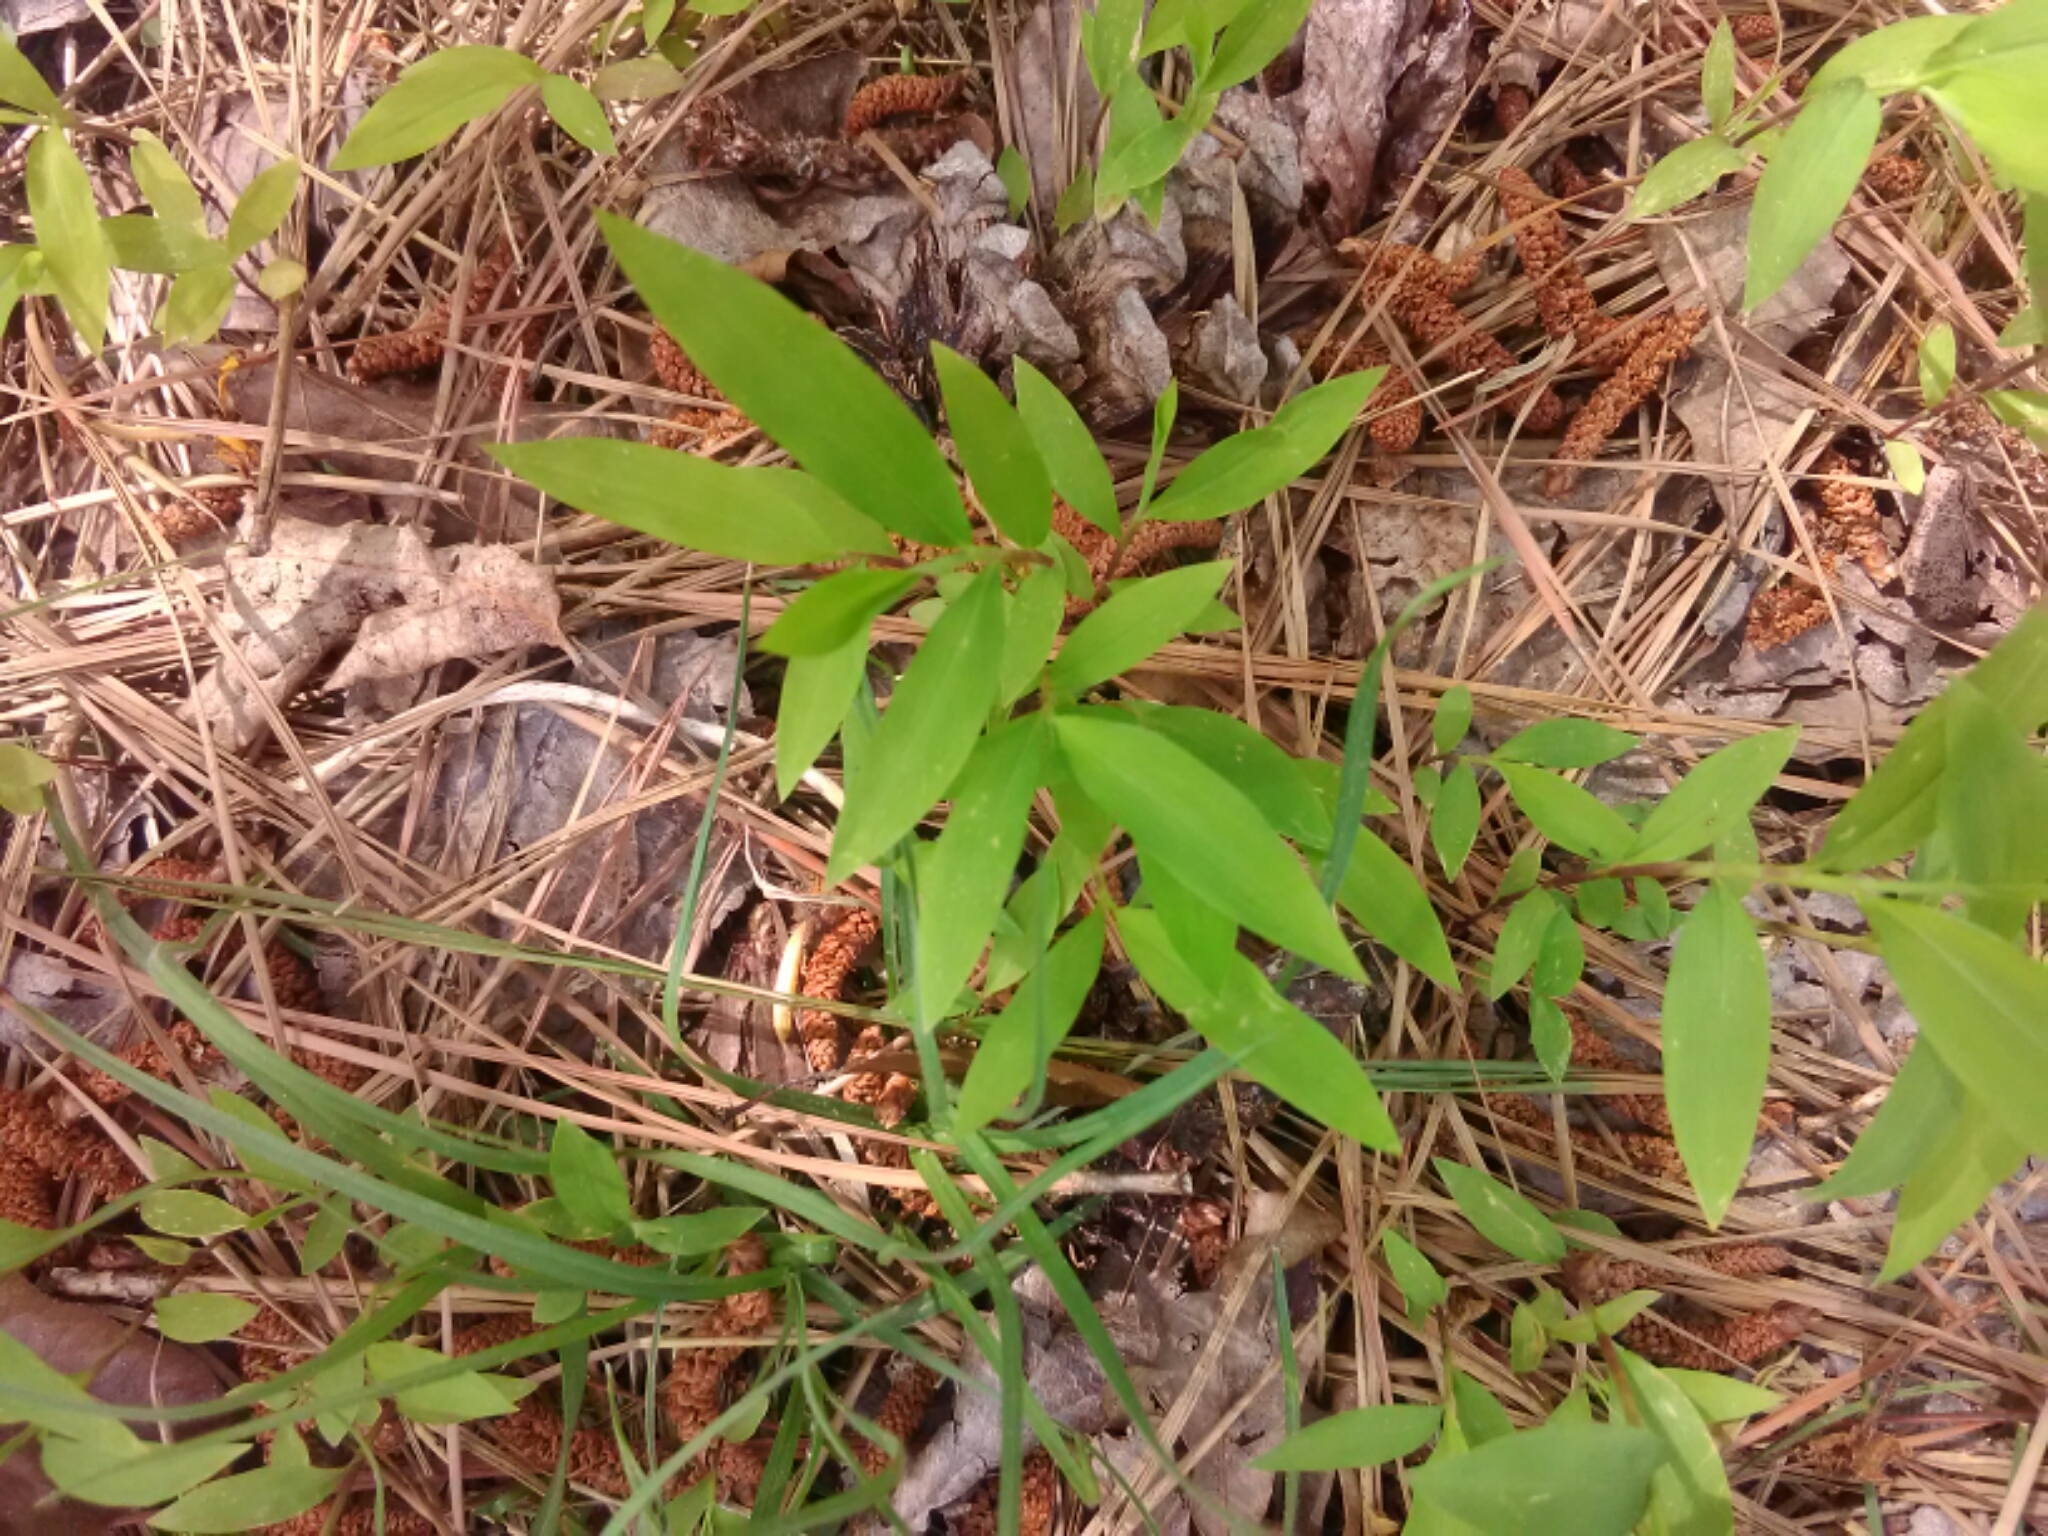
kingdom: Plantae
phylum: Tracheophyta
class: Liliopsida
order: Poales
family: Poaceae
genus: Microstegium
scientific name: Microstegium vimineum
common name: Japanese stiltgrass
